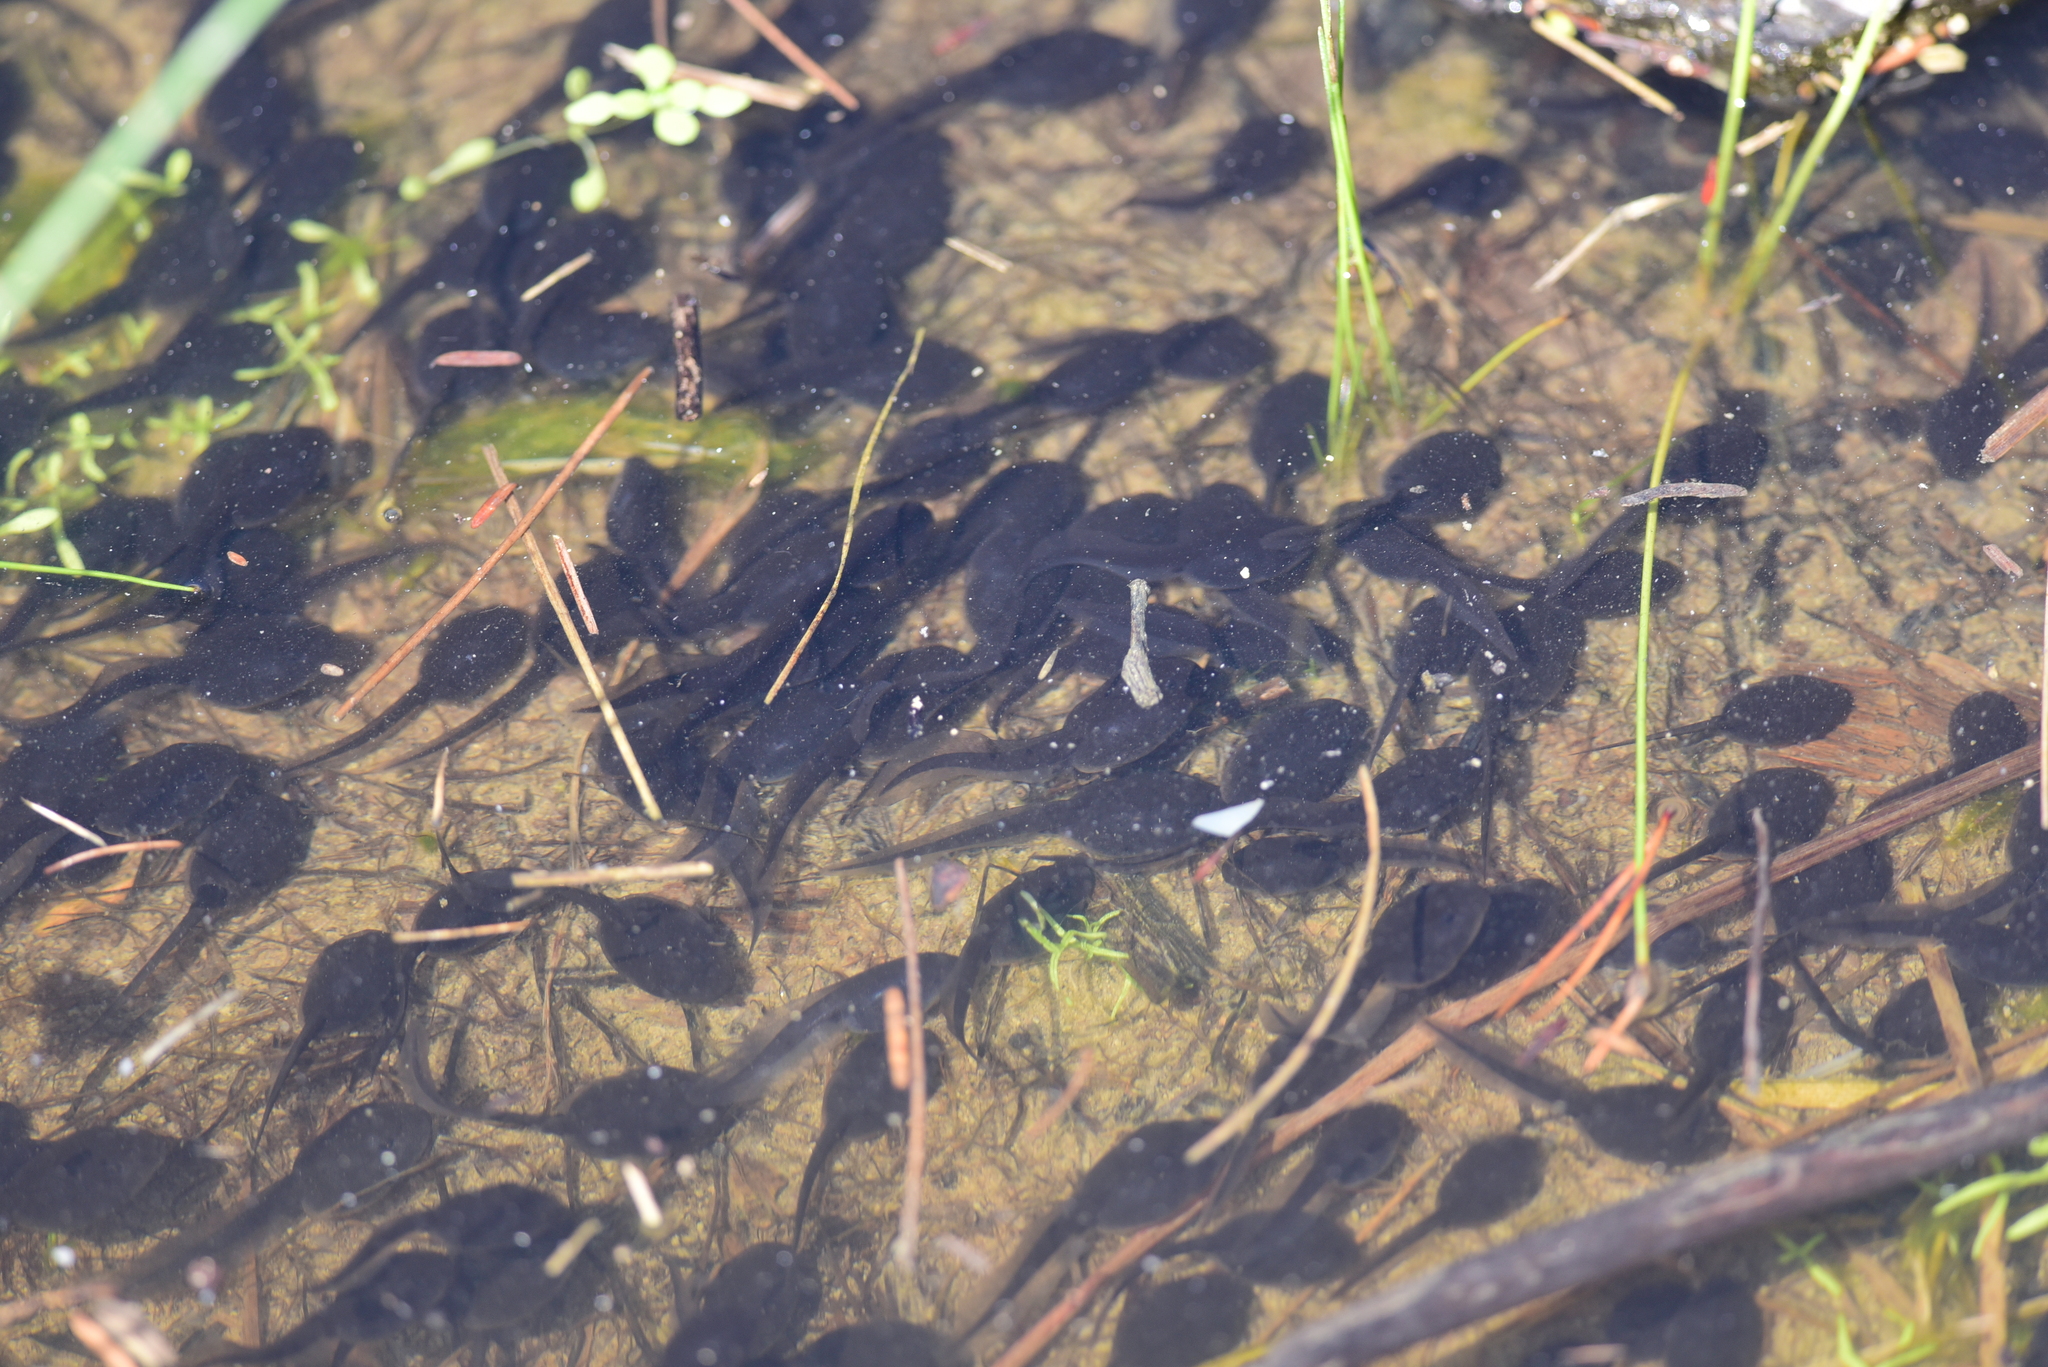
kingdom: Animalia
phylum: Chordata
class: Amphibia
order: Anura
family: Bufonidae
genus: Anaxyrus
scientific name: Anaxyrus boreas
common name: Western toad
